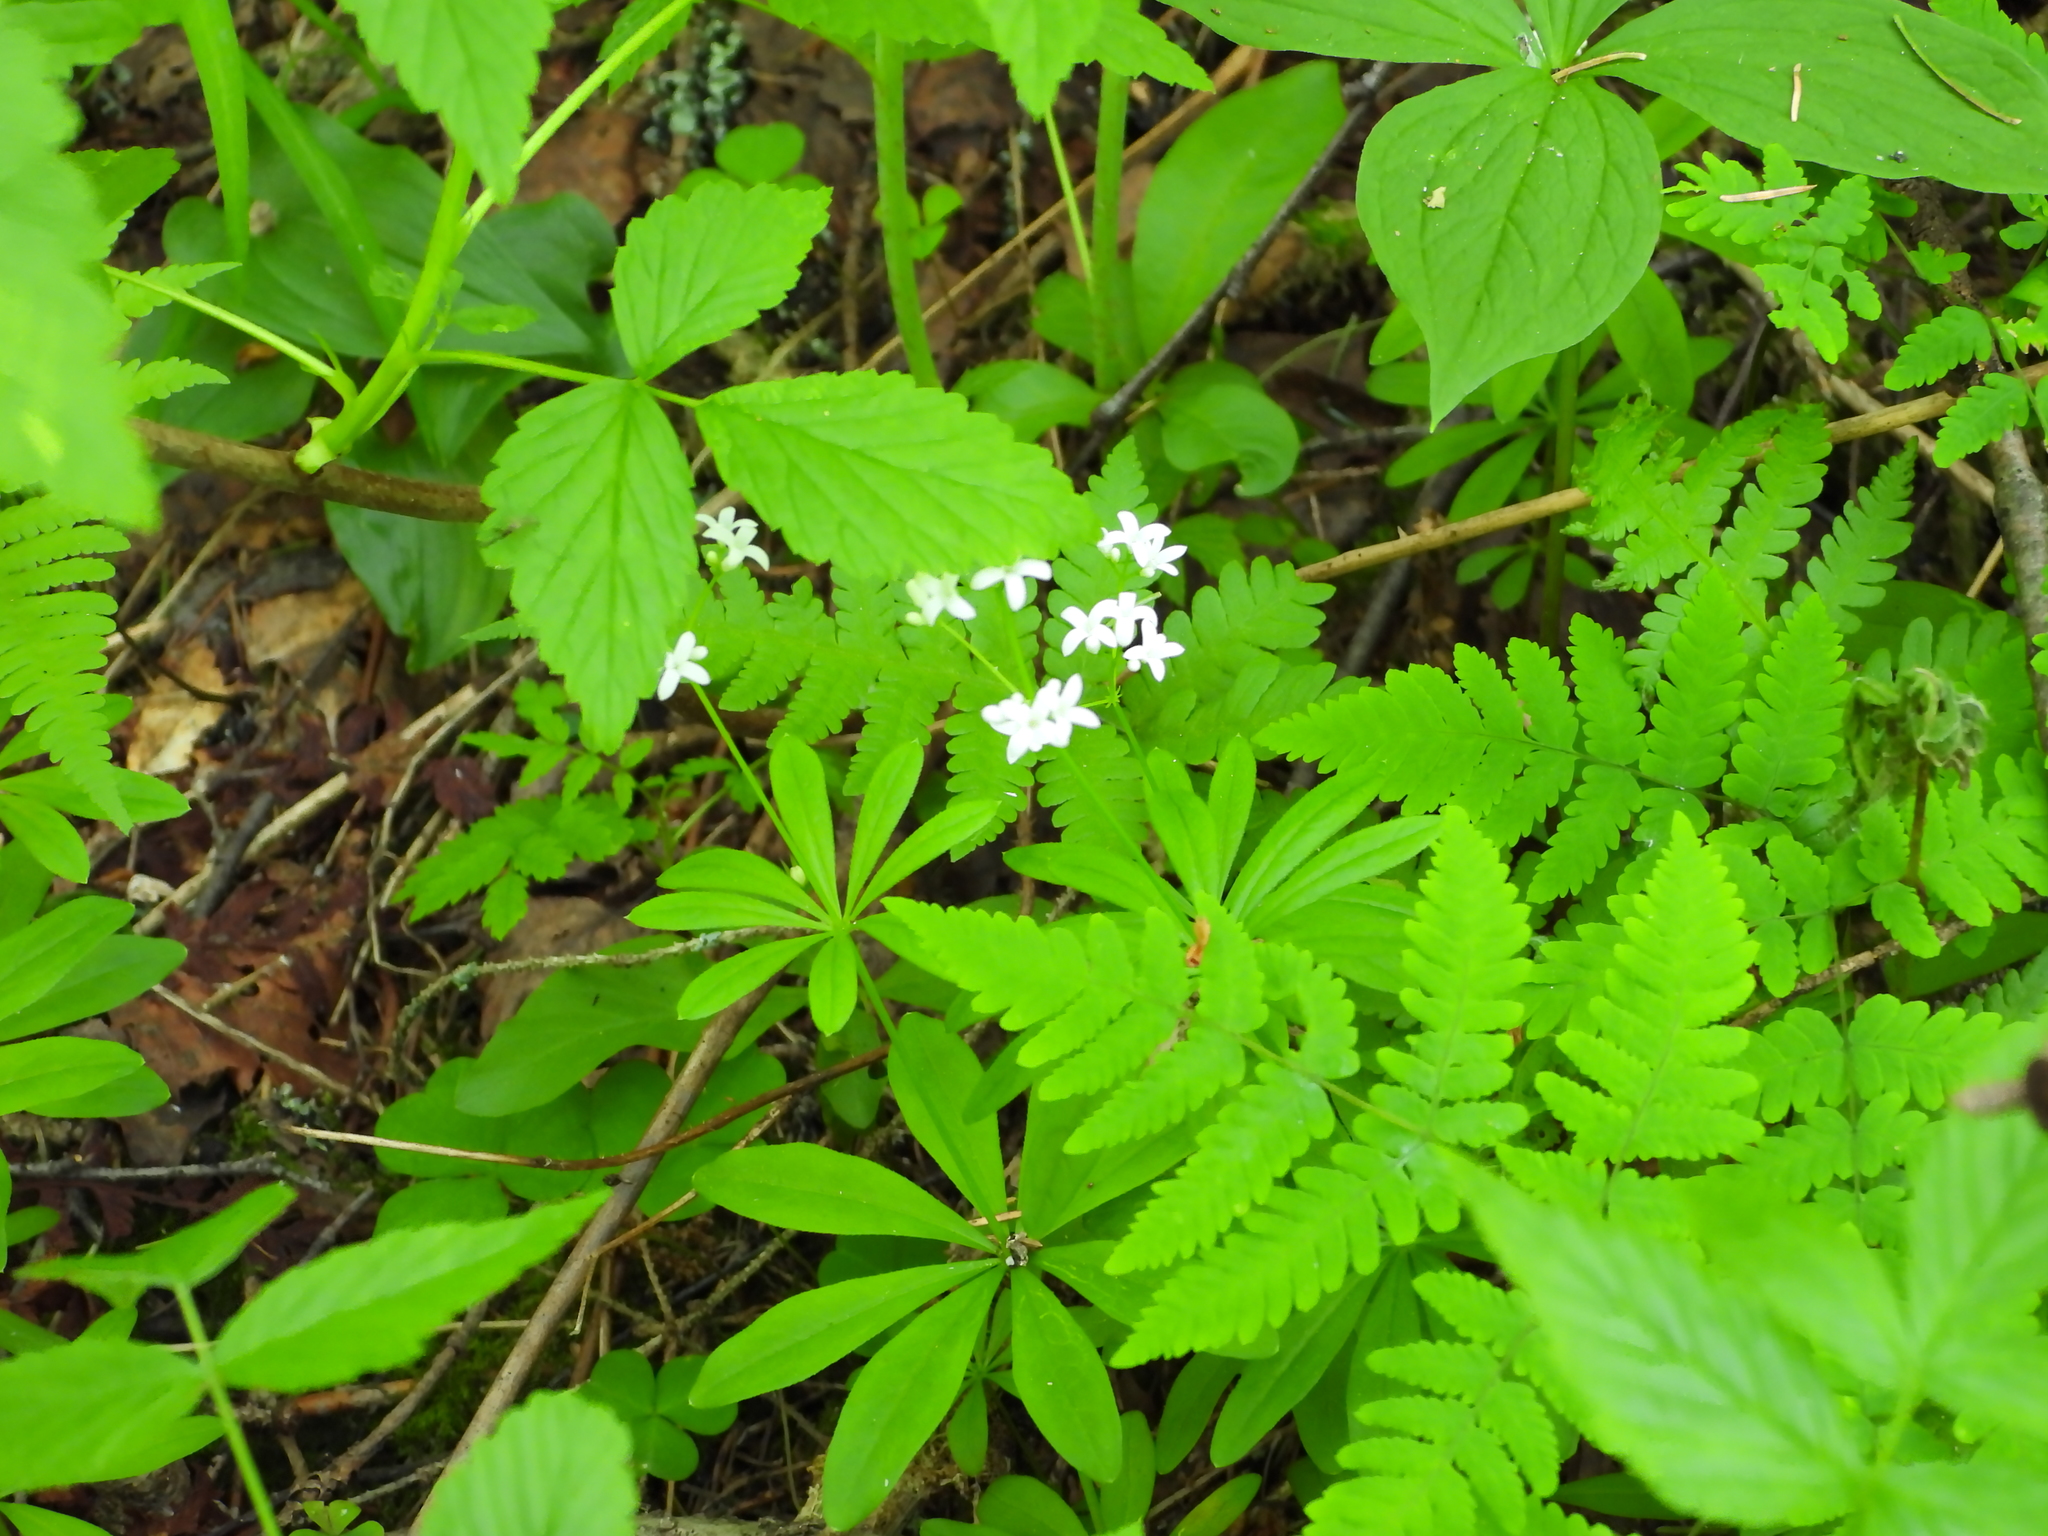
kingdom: Plantae
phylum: Tracheophyta
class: Magnoliopsida
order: Gentianales
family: Rubiaceae
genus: Galium
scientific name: Galium odoratum
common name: Sweet woodruff
